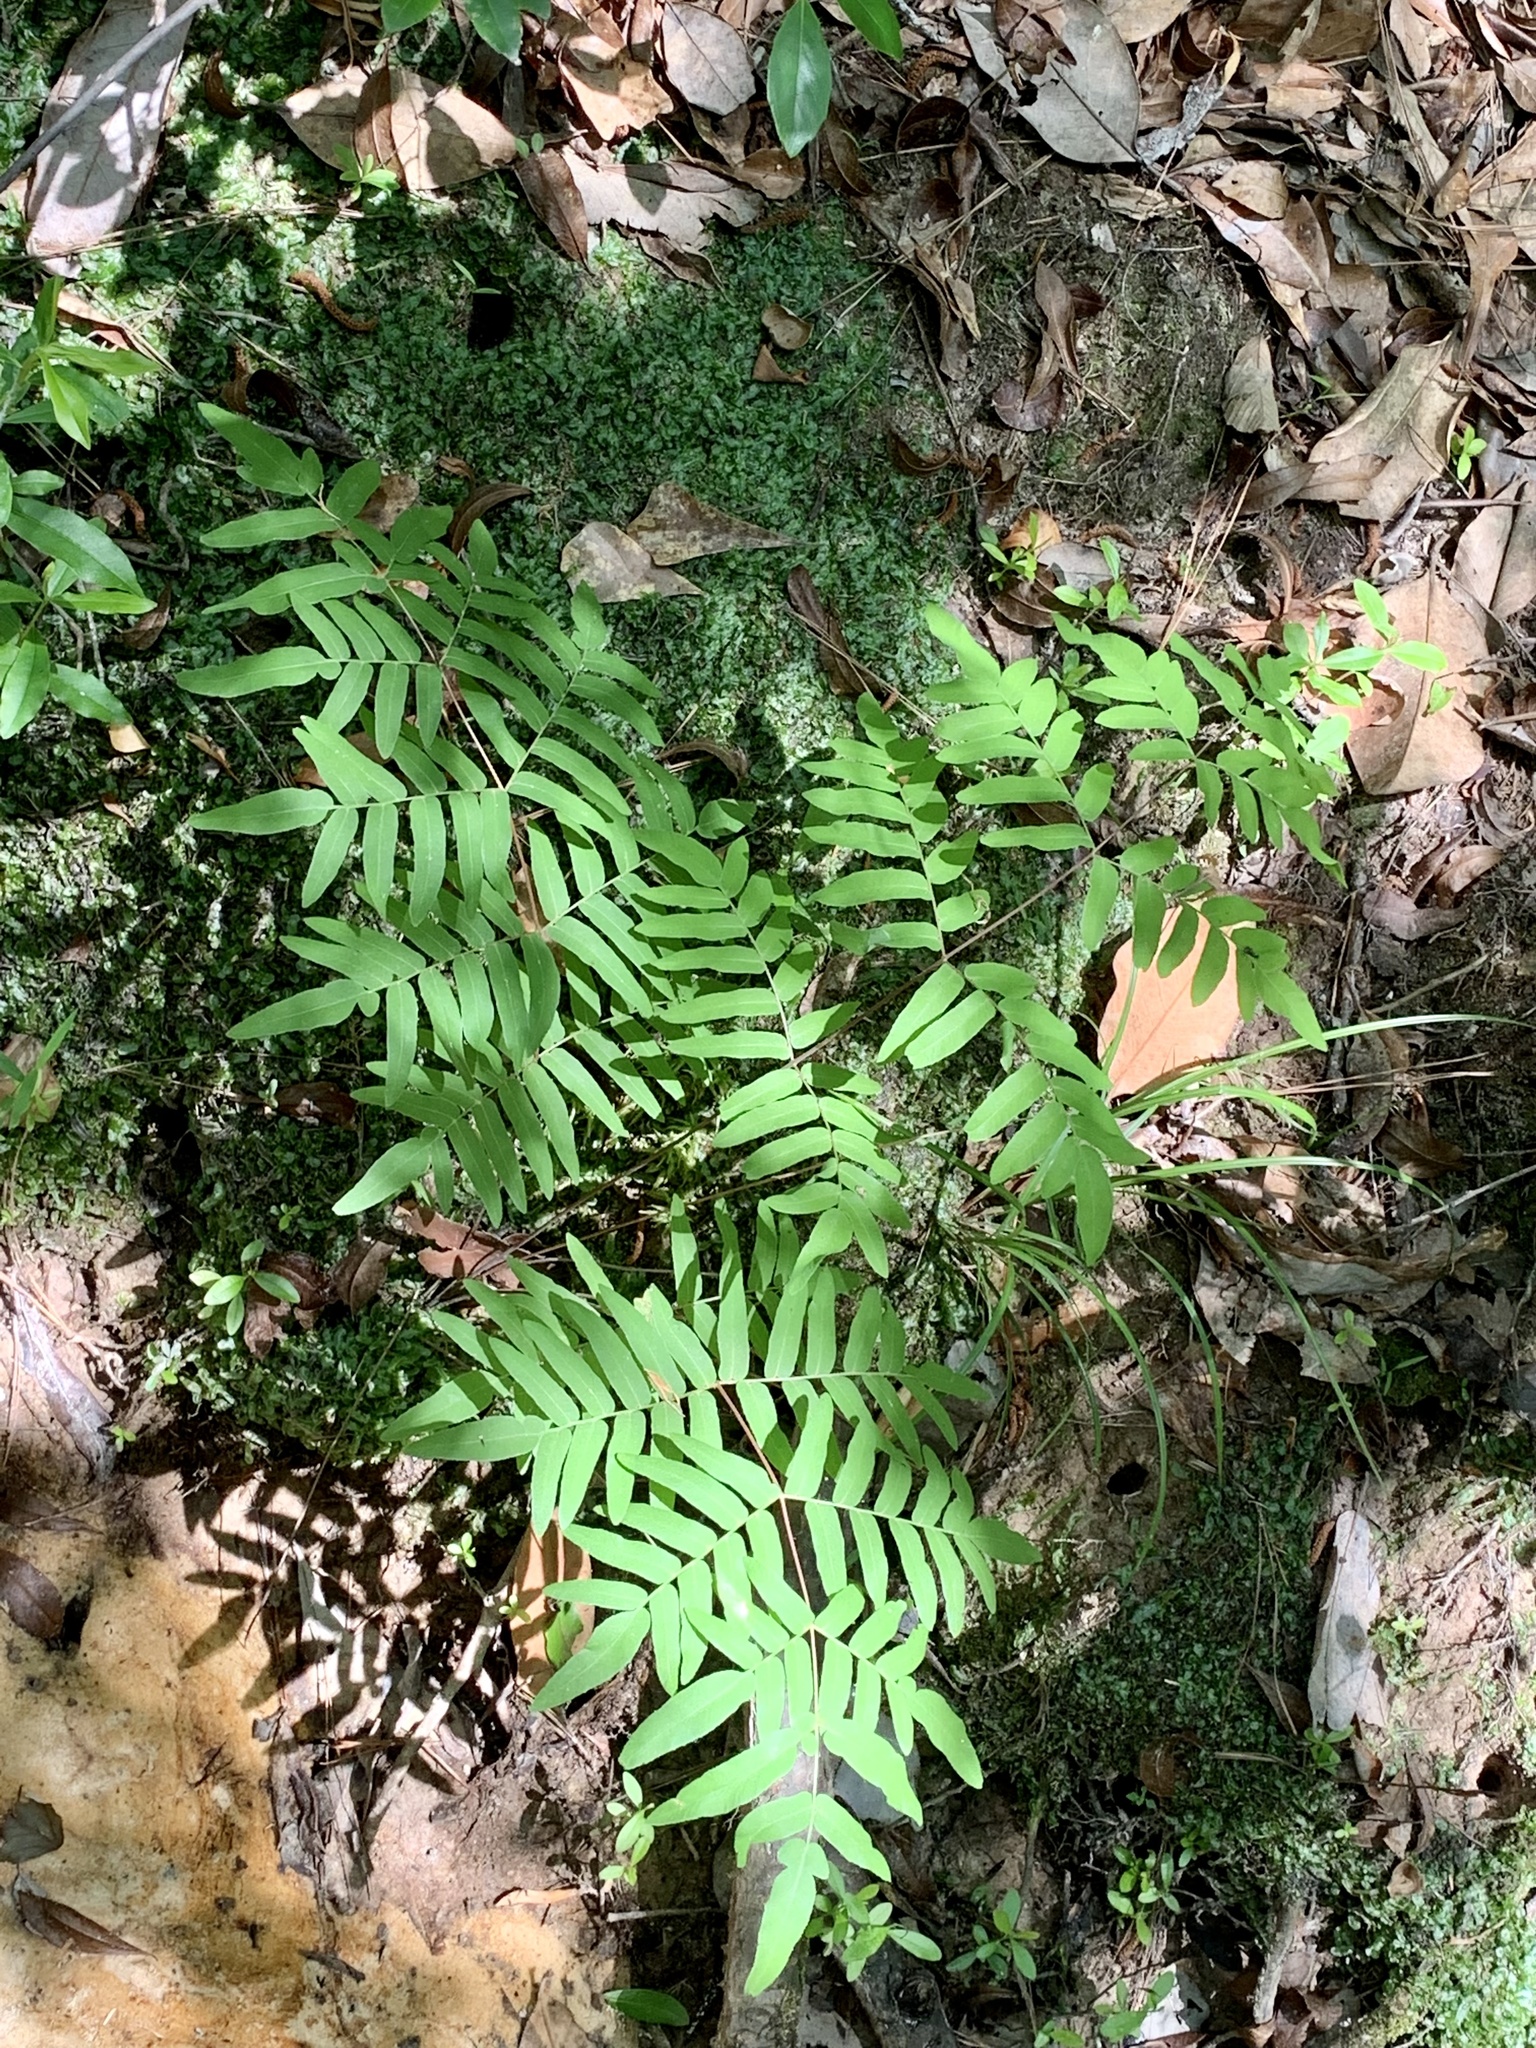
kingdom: Plantae
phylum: Tracheophyta
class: Polypodiopsida
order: Osmundales
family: Osmundaceae
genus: Osmunda
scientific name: Osmunda spectabilis
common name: American royal fern
